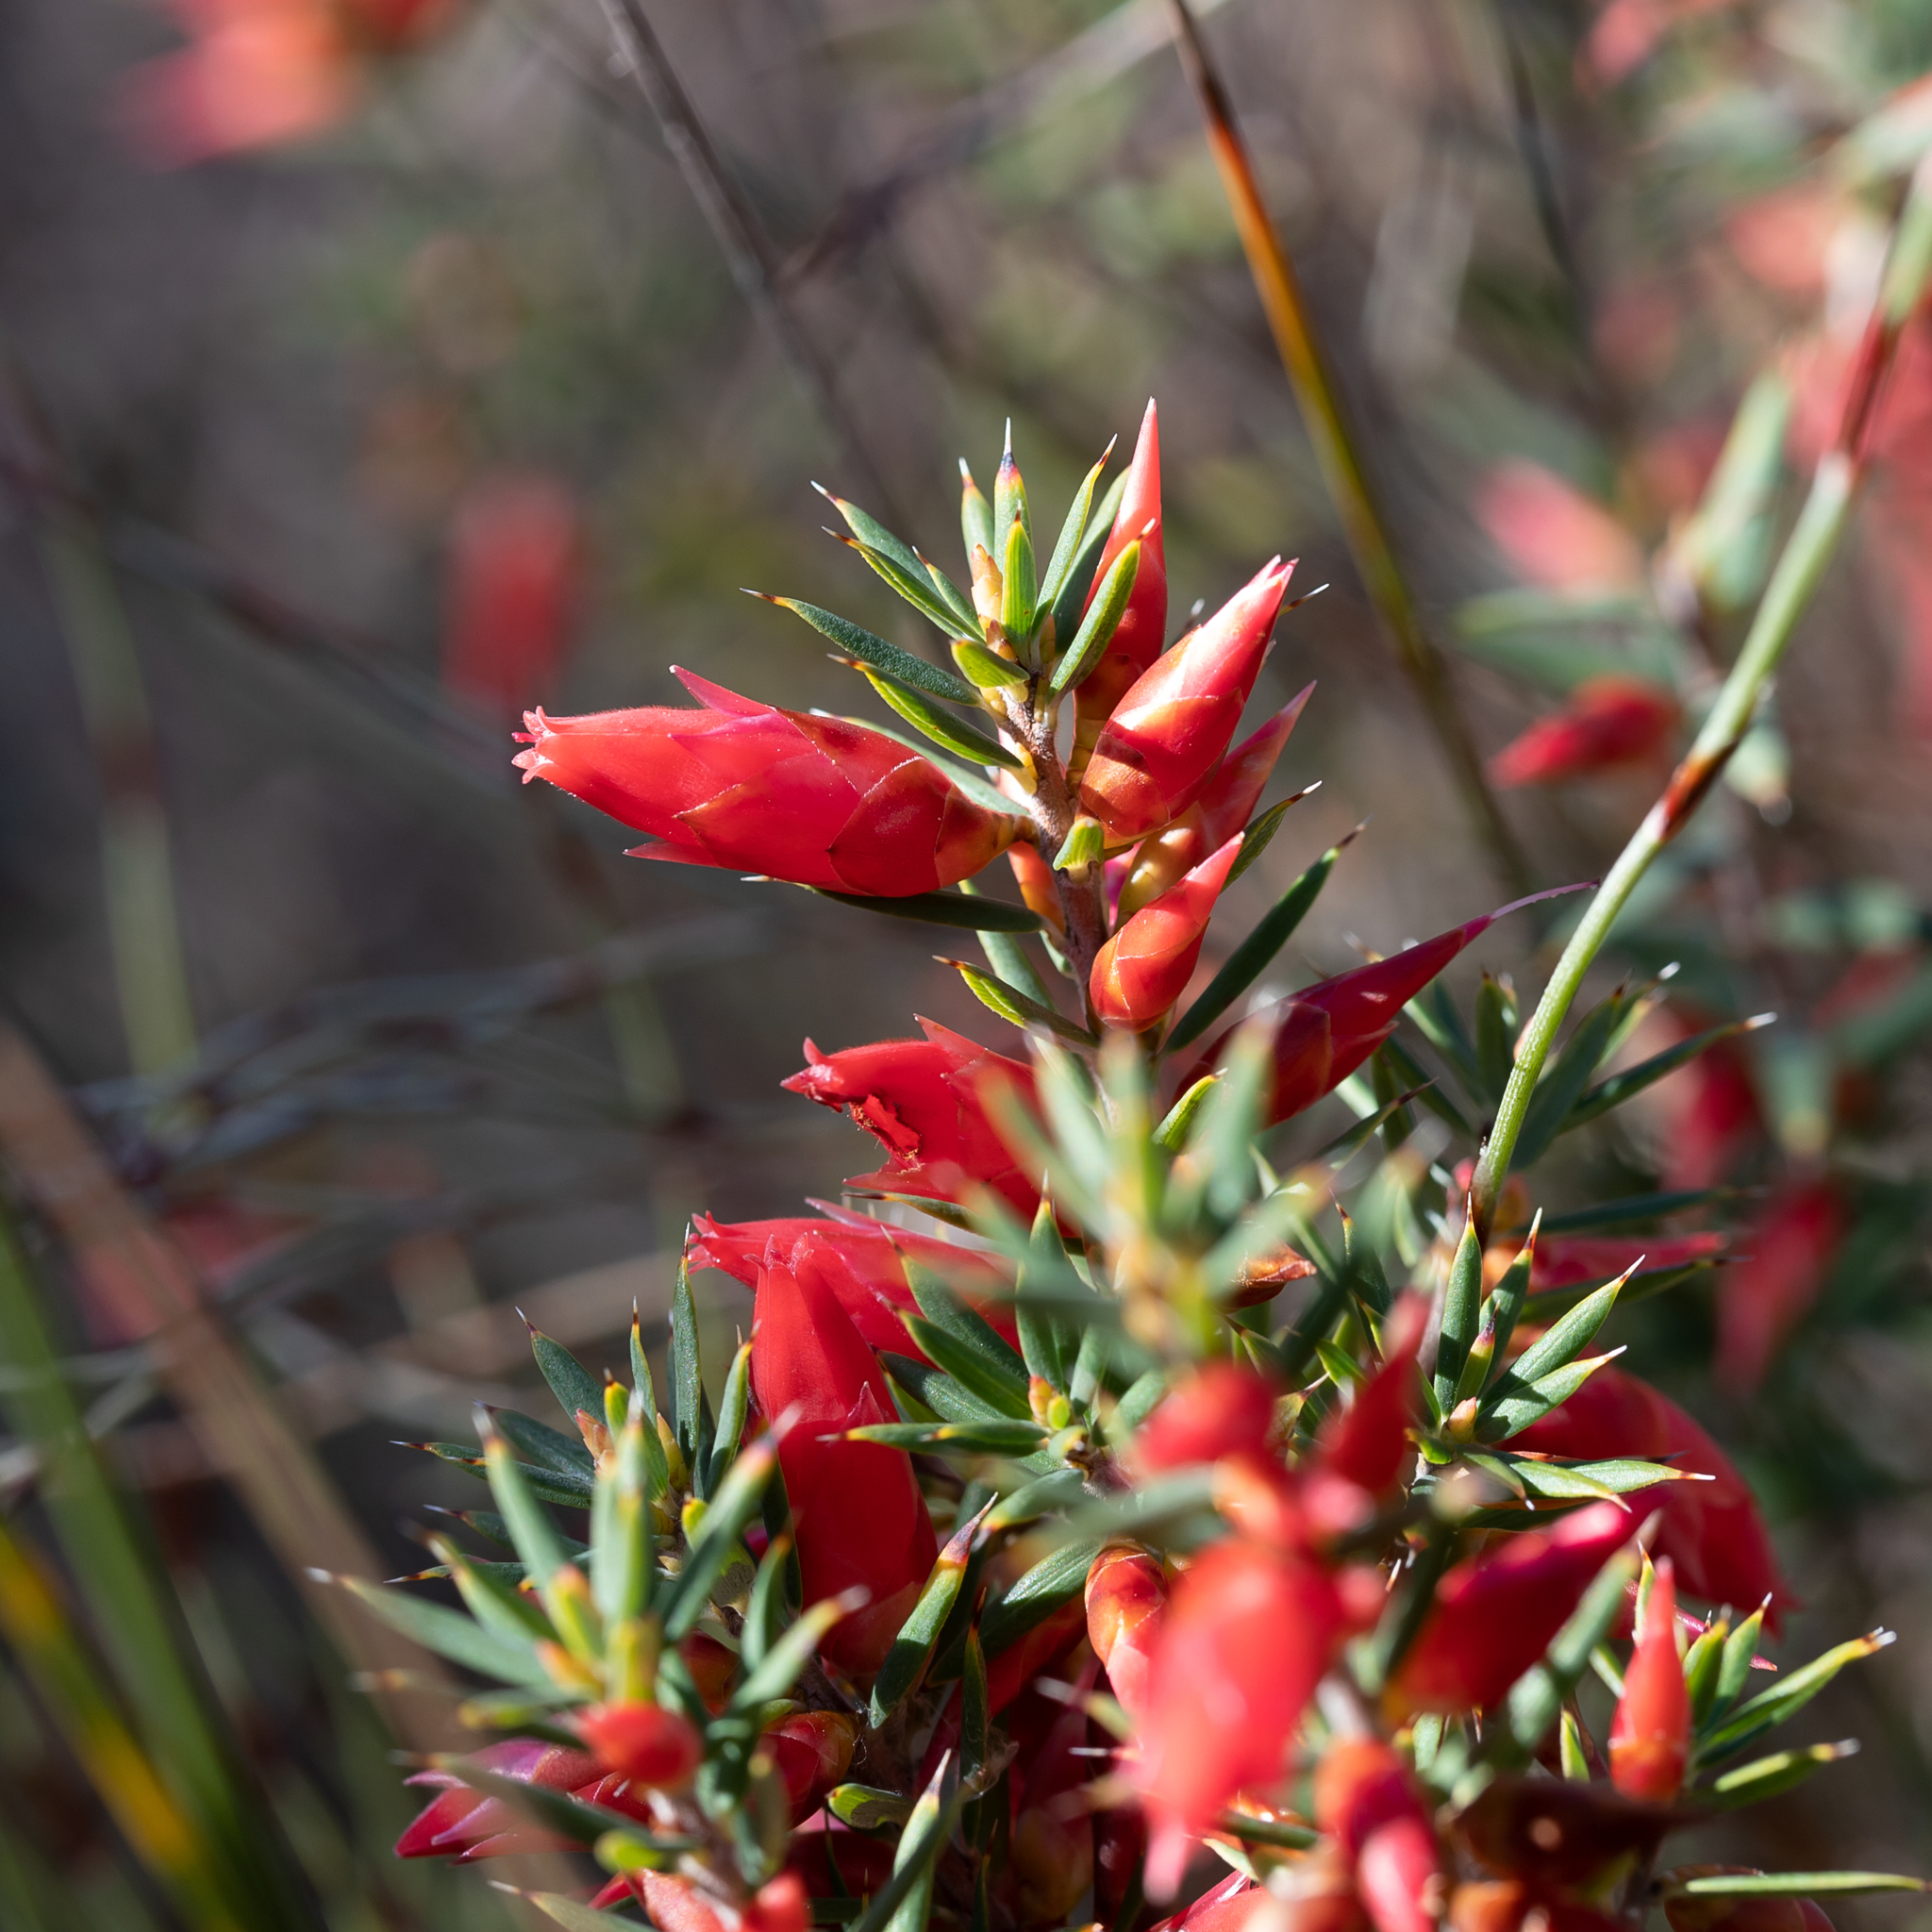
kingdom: Plantae
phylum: Tracheophyta
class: Magnoliopsida
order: Ericales
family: Ericaceae
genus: Stenanthera
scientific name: Stenanthera conostephioides
